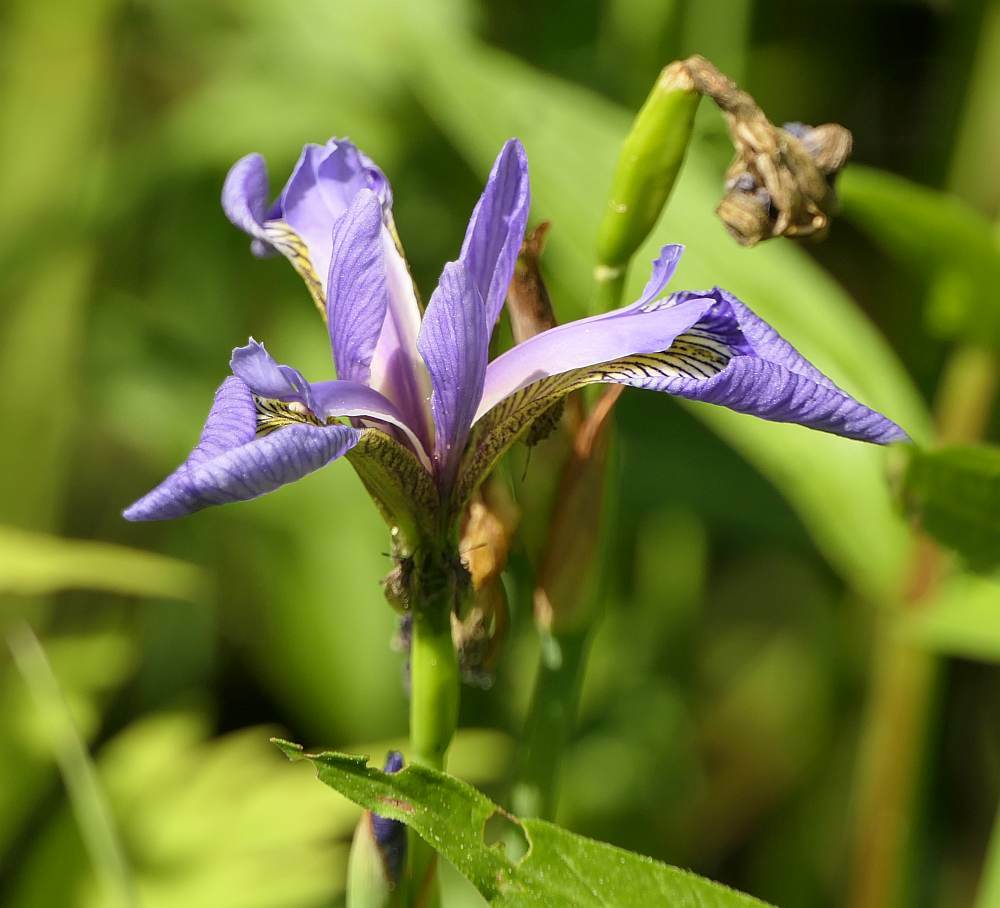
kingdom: Plantae
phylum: Tracheophyta
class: Liliopsida
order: Asparagales
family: Iridaceae
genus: Iris
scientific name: Iris versicolor
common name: Purple iris
